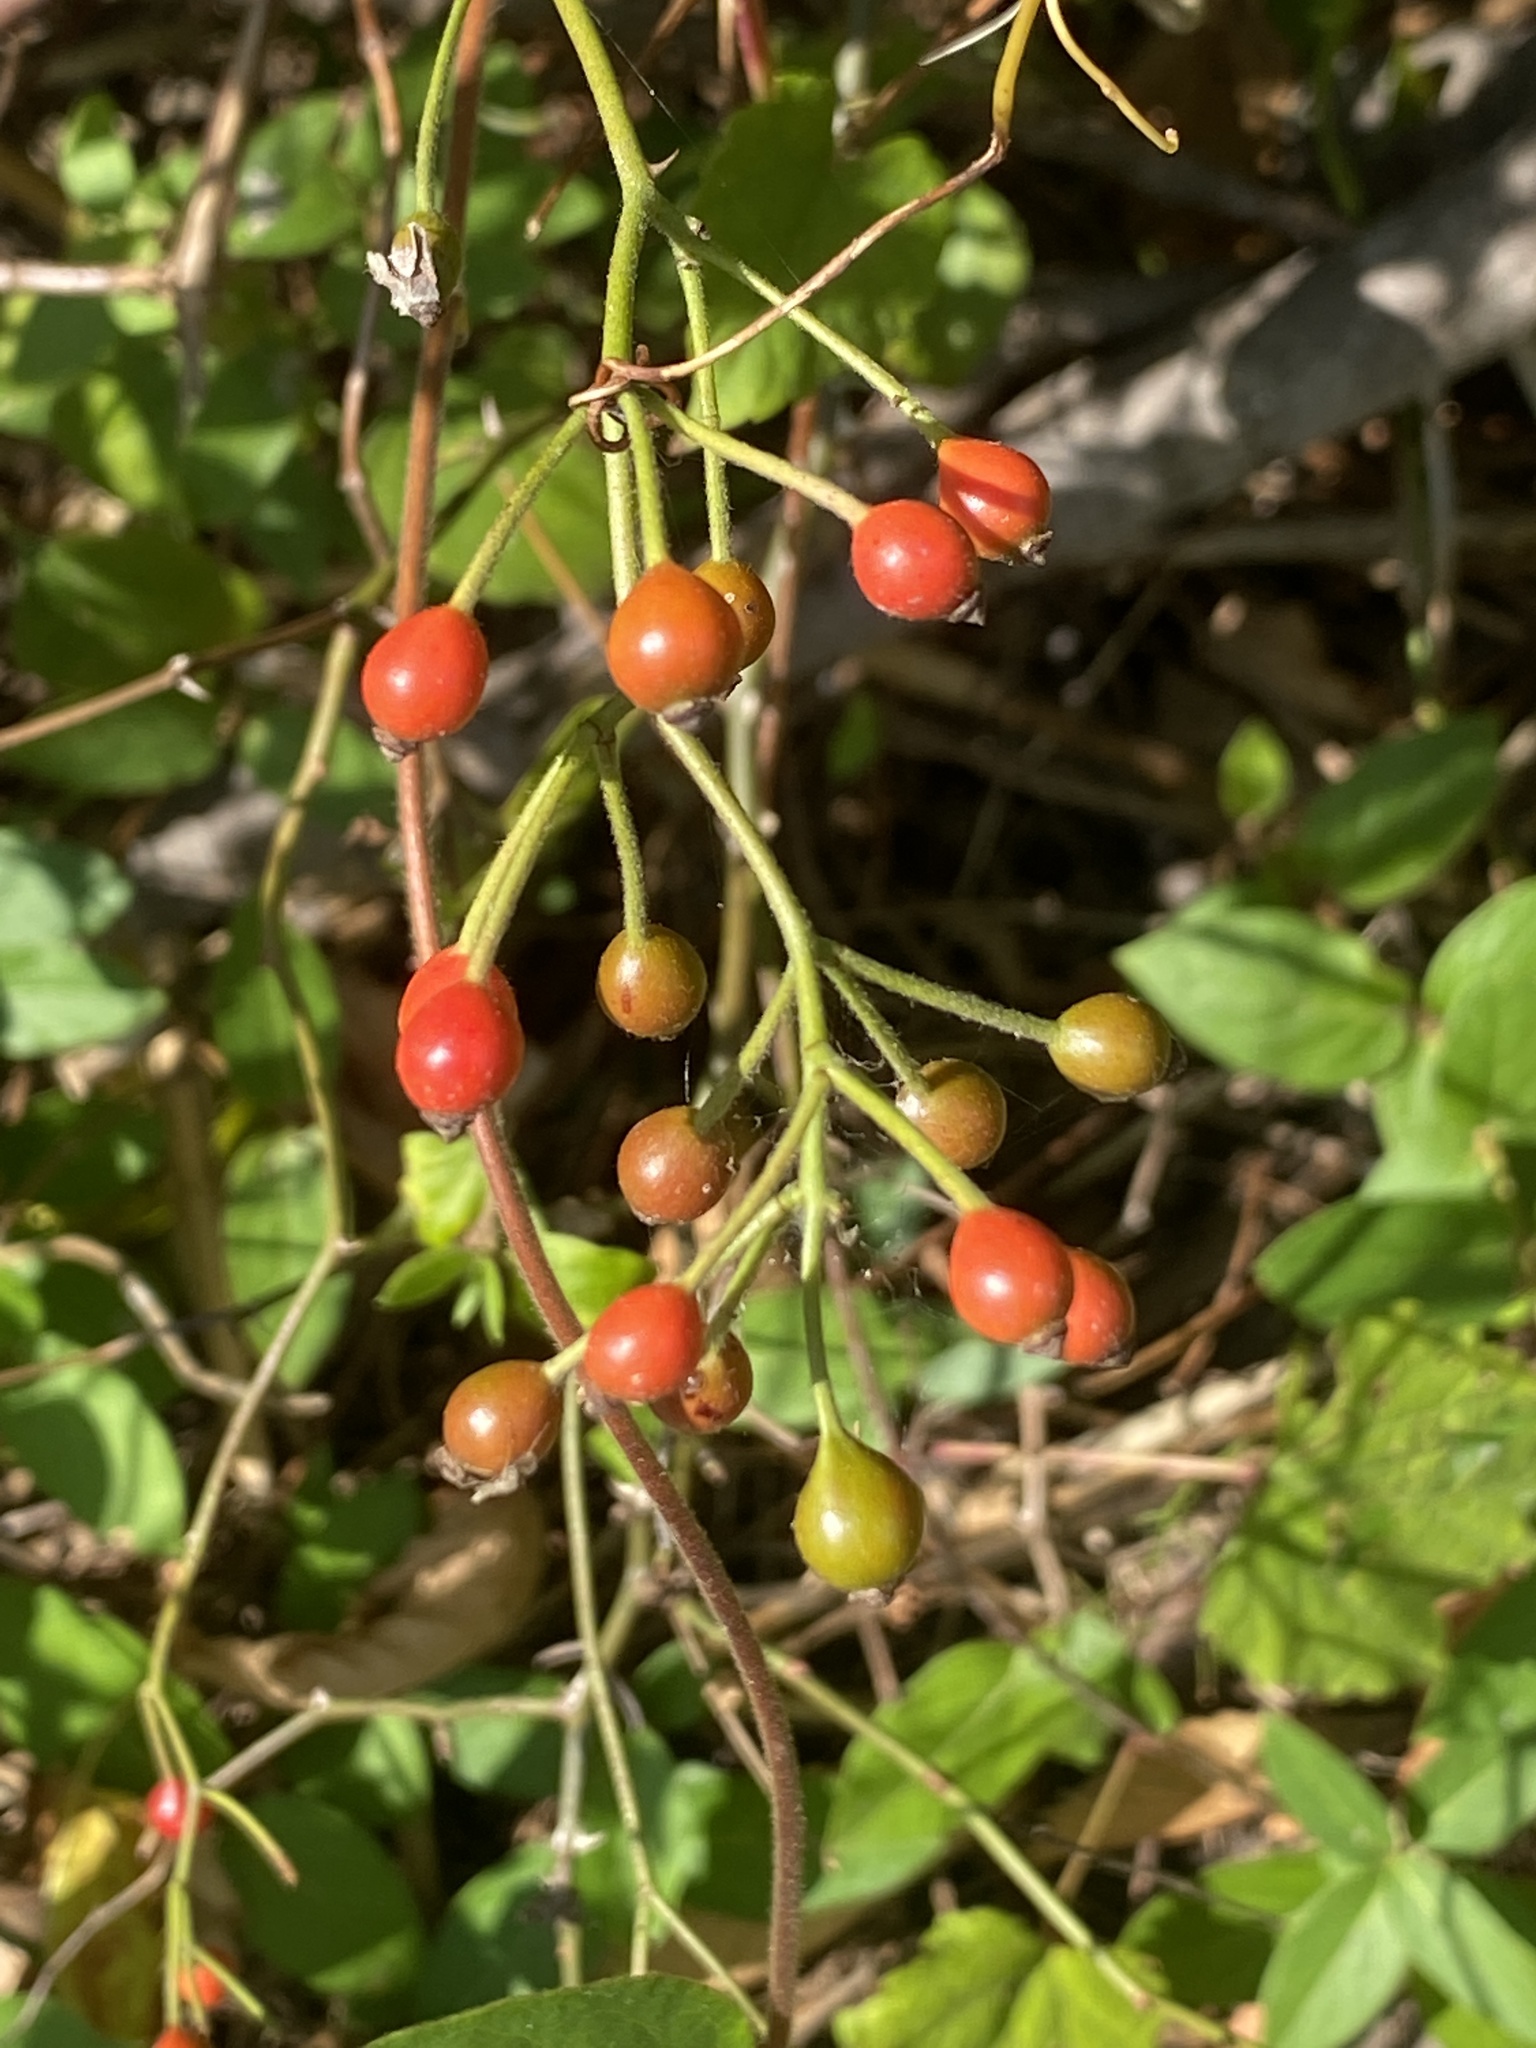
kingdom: Plantae
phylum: Tracheophyta
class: Magnoliopsida
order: Rosales
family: Rosaceae
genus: Rosa
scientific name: Rosa multiflora
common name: Multiflora rose
